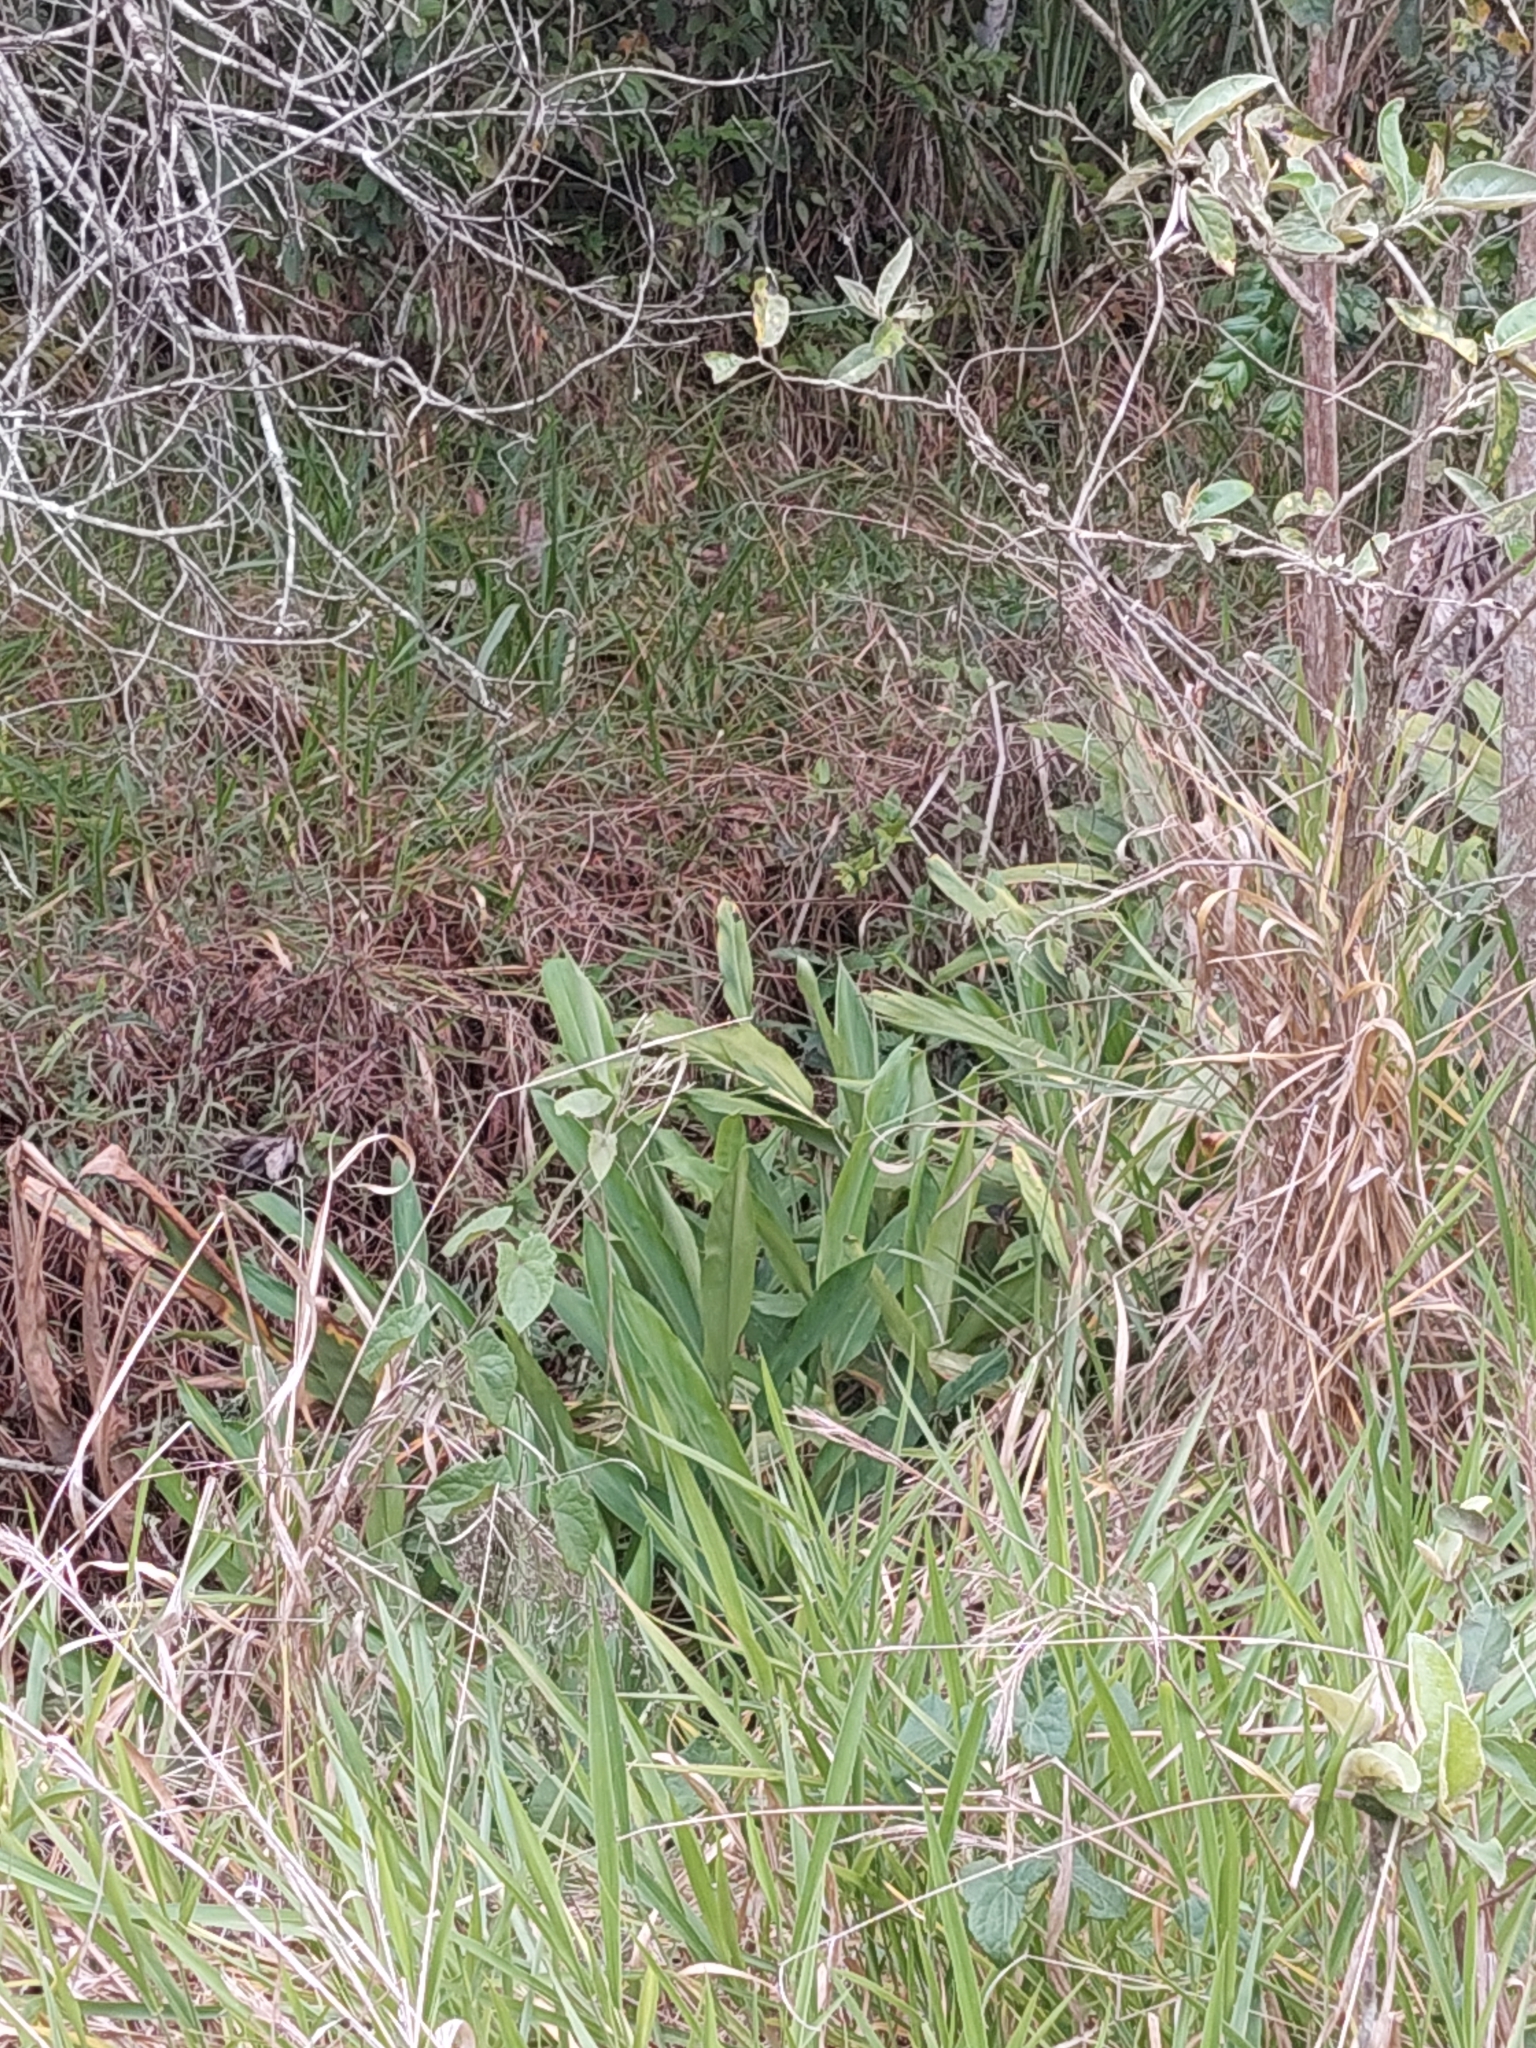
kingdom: Plantae
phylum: Tracheophyta
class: Liliopsida
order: Zingiberales
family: Zingiberaceae
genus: Hedychium
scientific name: Hedychium coronarium
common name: White garland-lily
